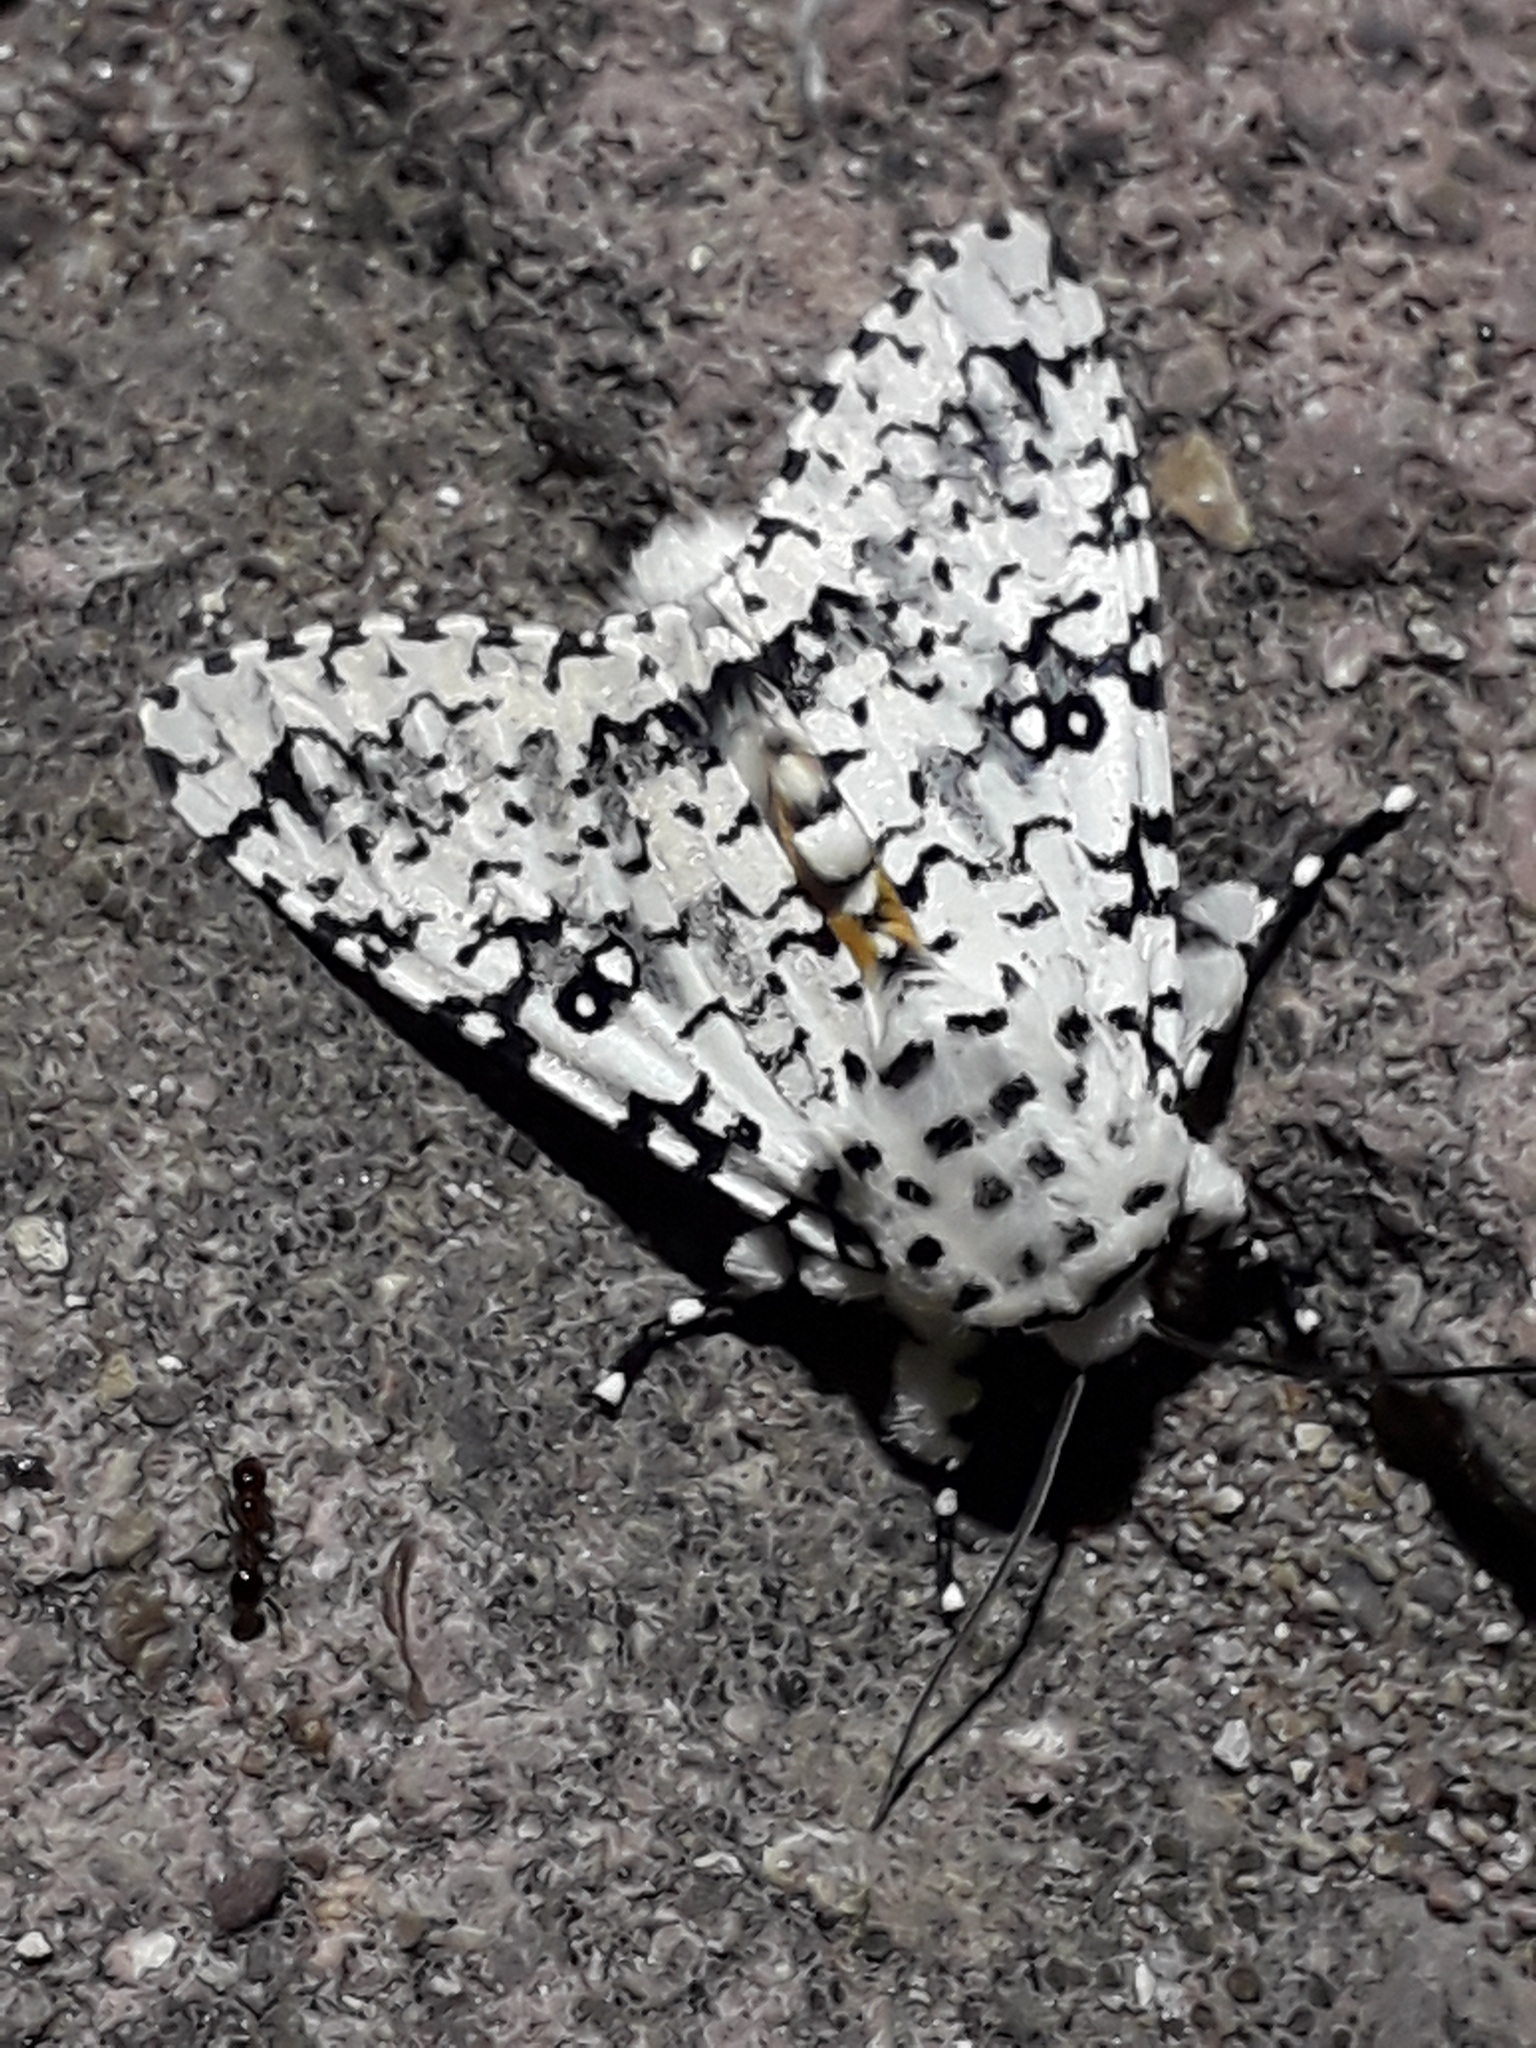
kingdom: Animalia
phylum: Arthropoda
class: Insecta
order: Lepidoptera
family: Noctuidae
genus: Lichnoptera
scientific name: Lichnoptera decora
